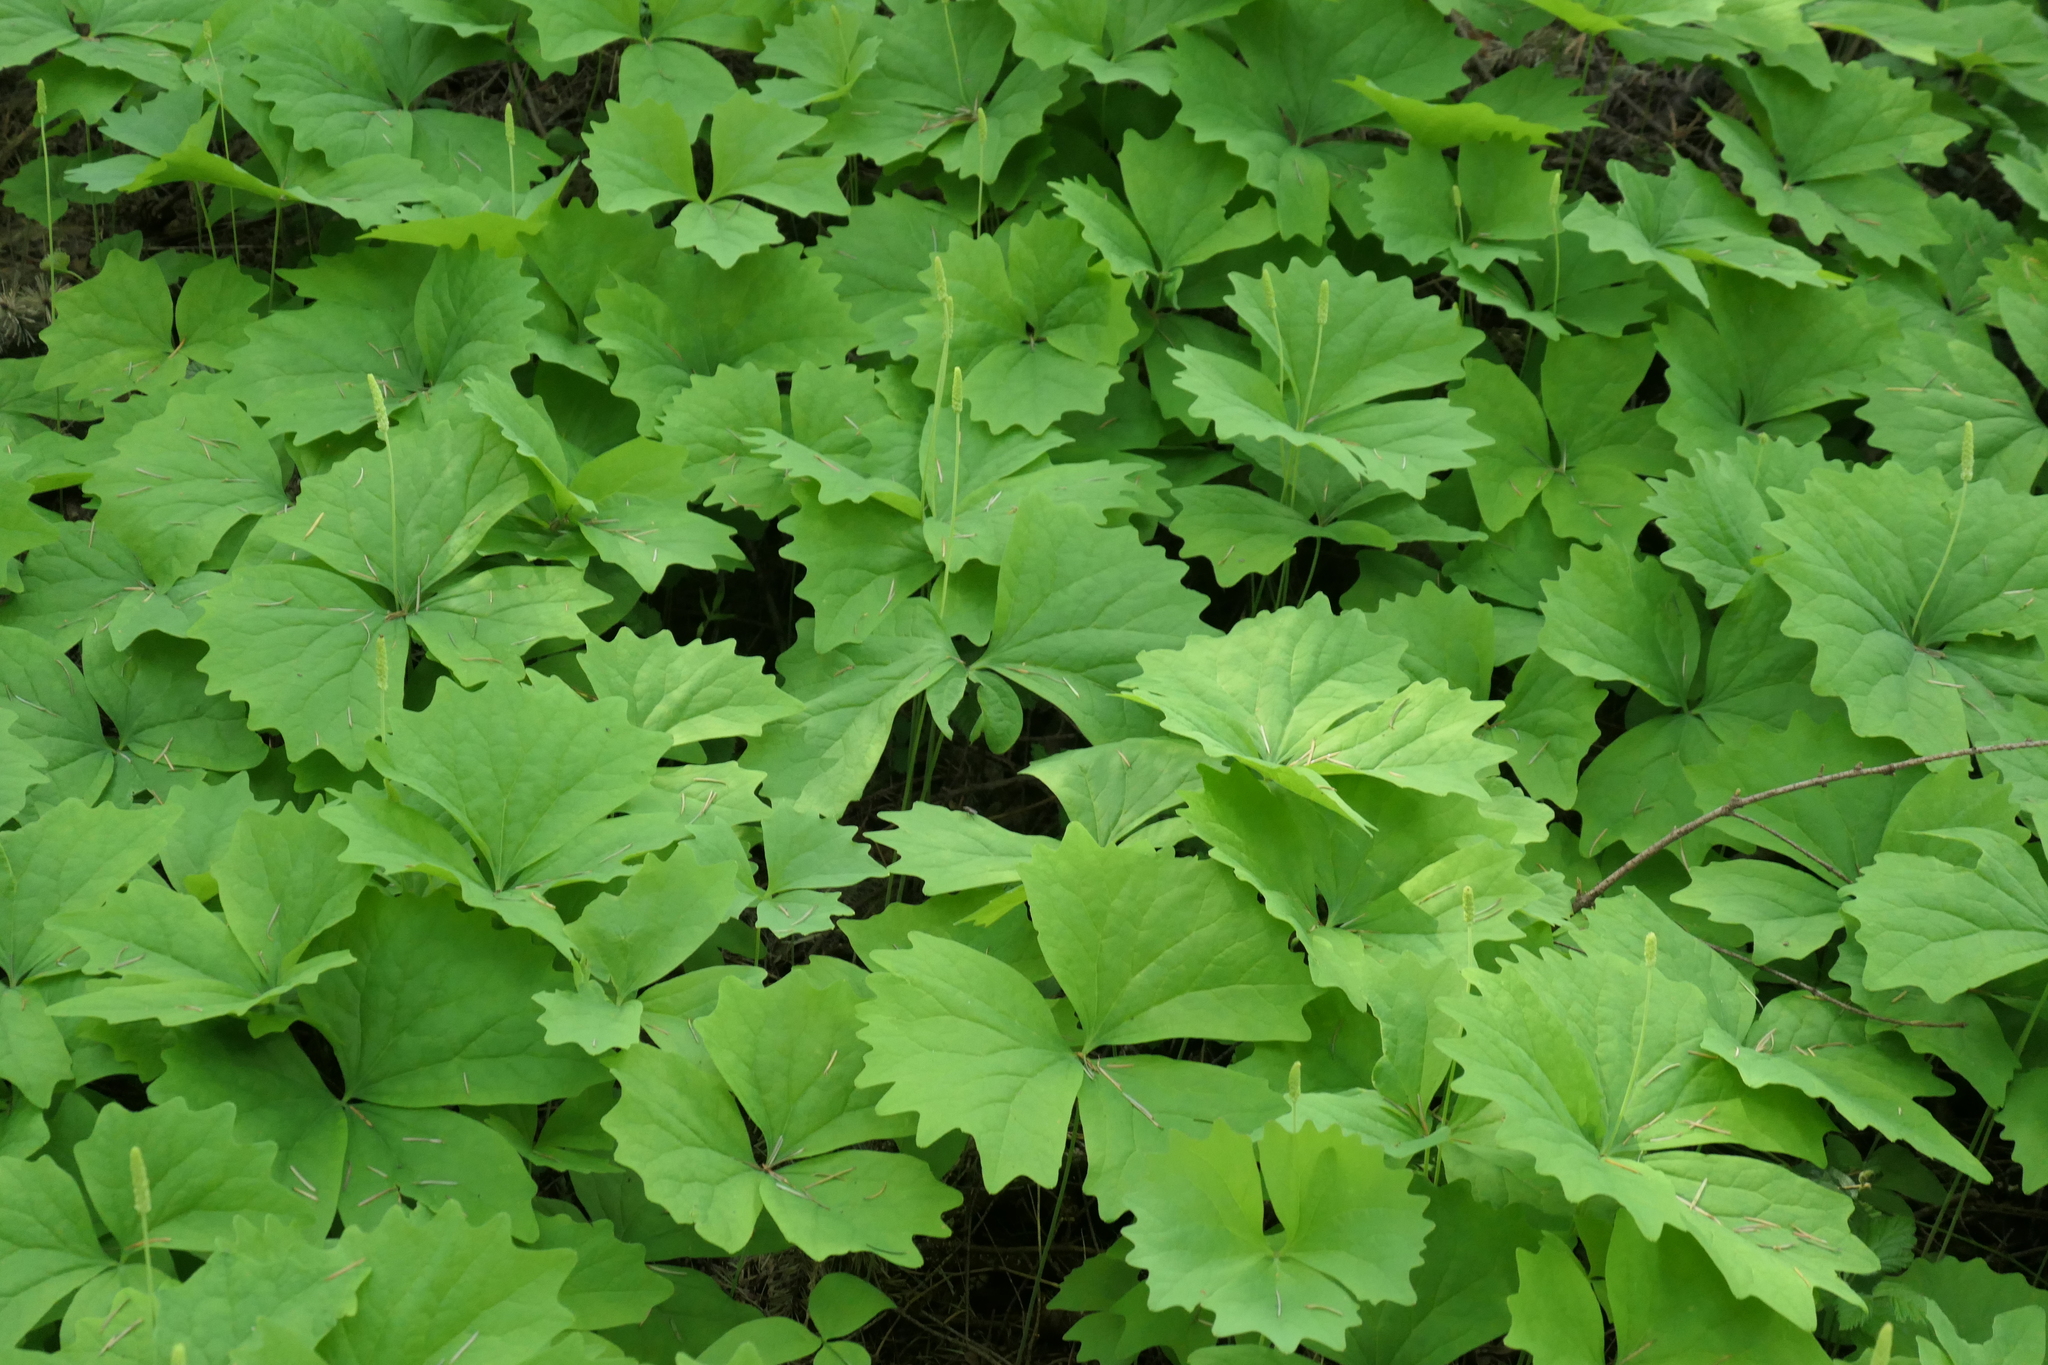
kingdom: Plantae
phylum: Tracheophyta
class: Magnoliopsida
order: Ranunculales
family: Berberidaceae
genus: Achlys
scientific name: Achlys triphylla
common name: Vanilla-leaf
